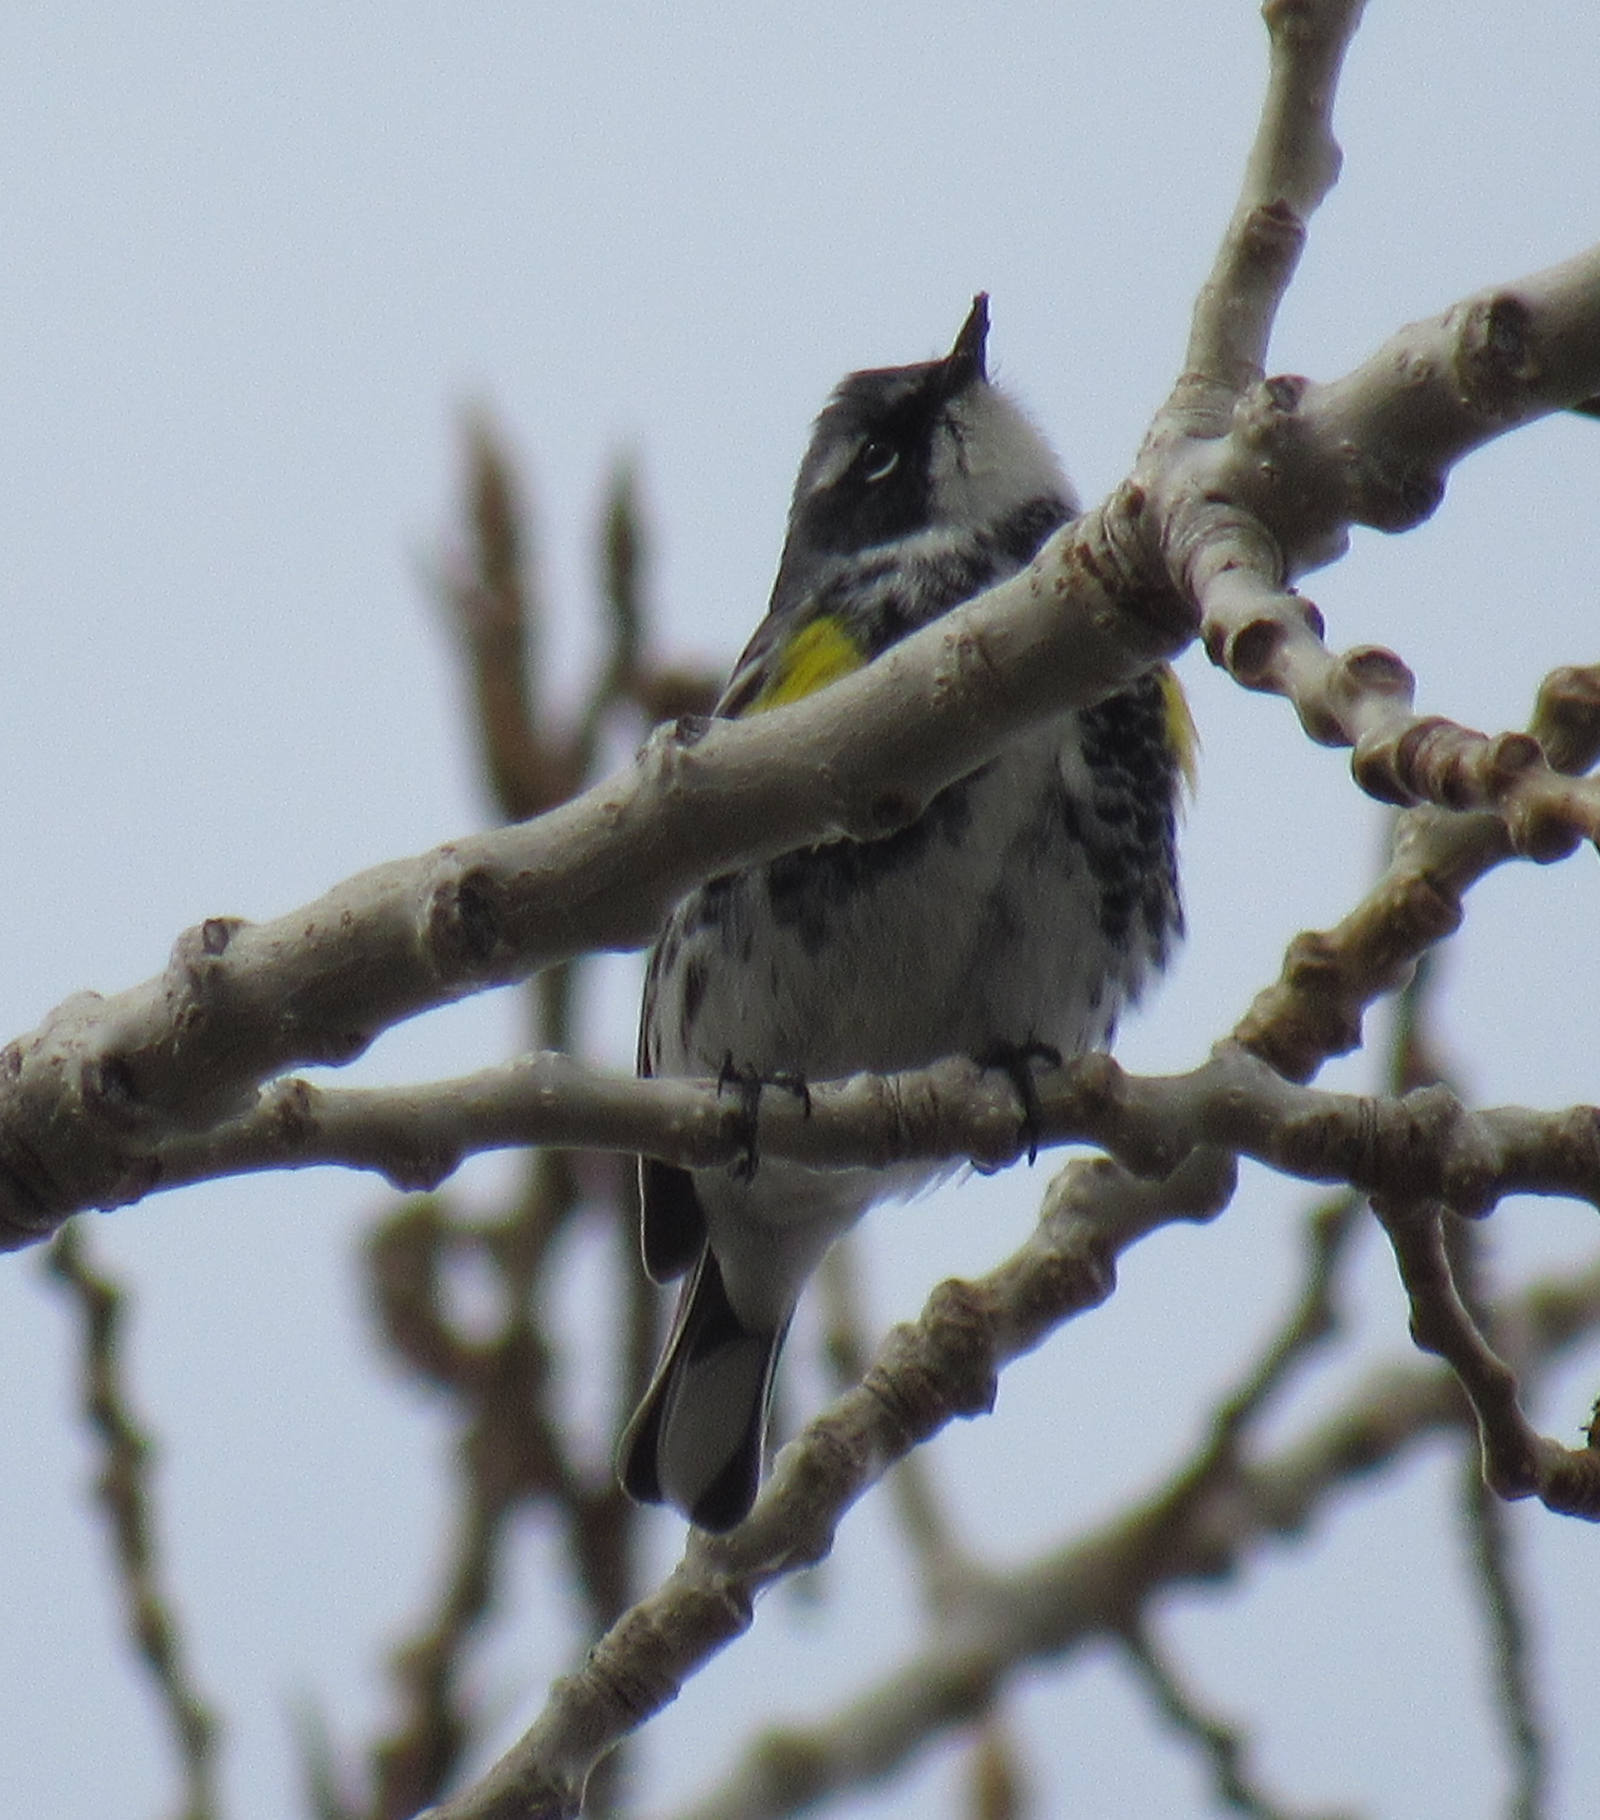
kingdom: Animalia
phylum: Chordata
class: Aves
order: Passeriformes
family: Parulidae
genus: Setophaga
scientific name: Setophaga coronata
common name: Myrtle warbler
